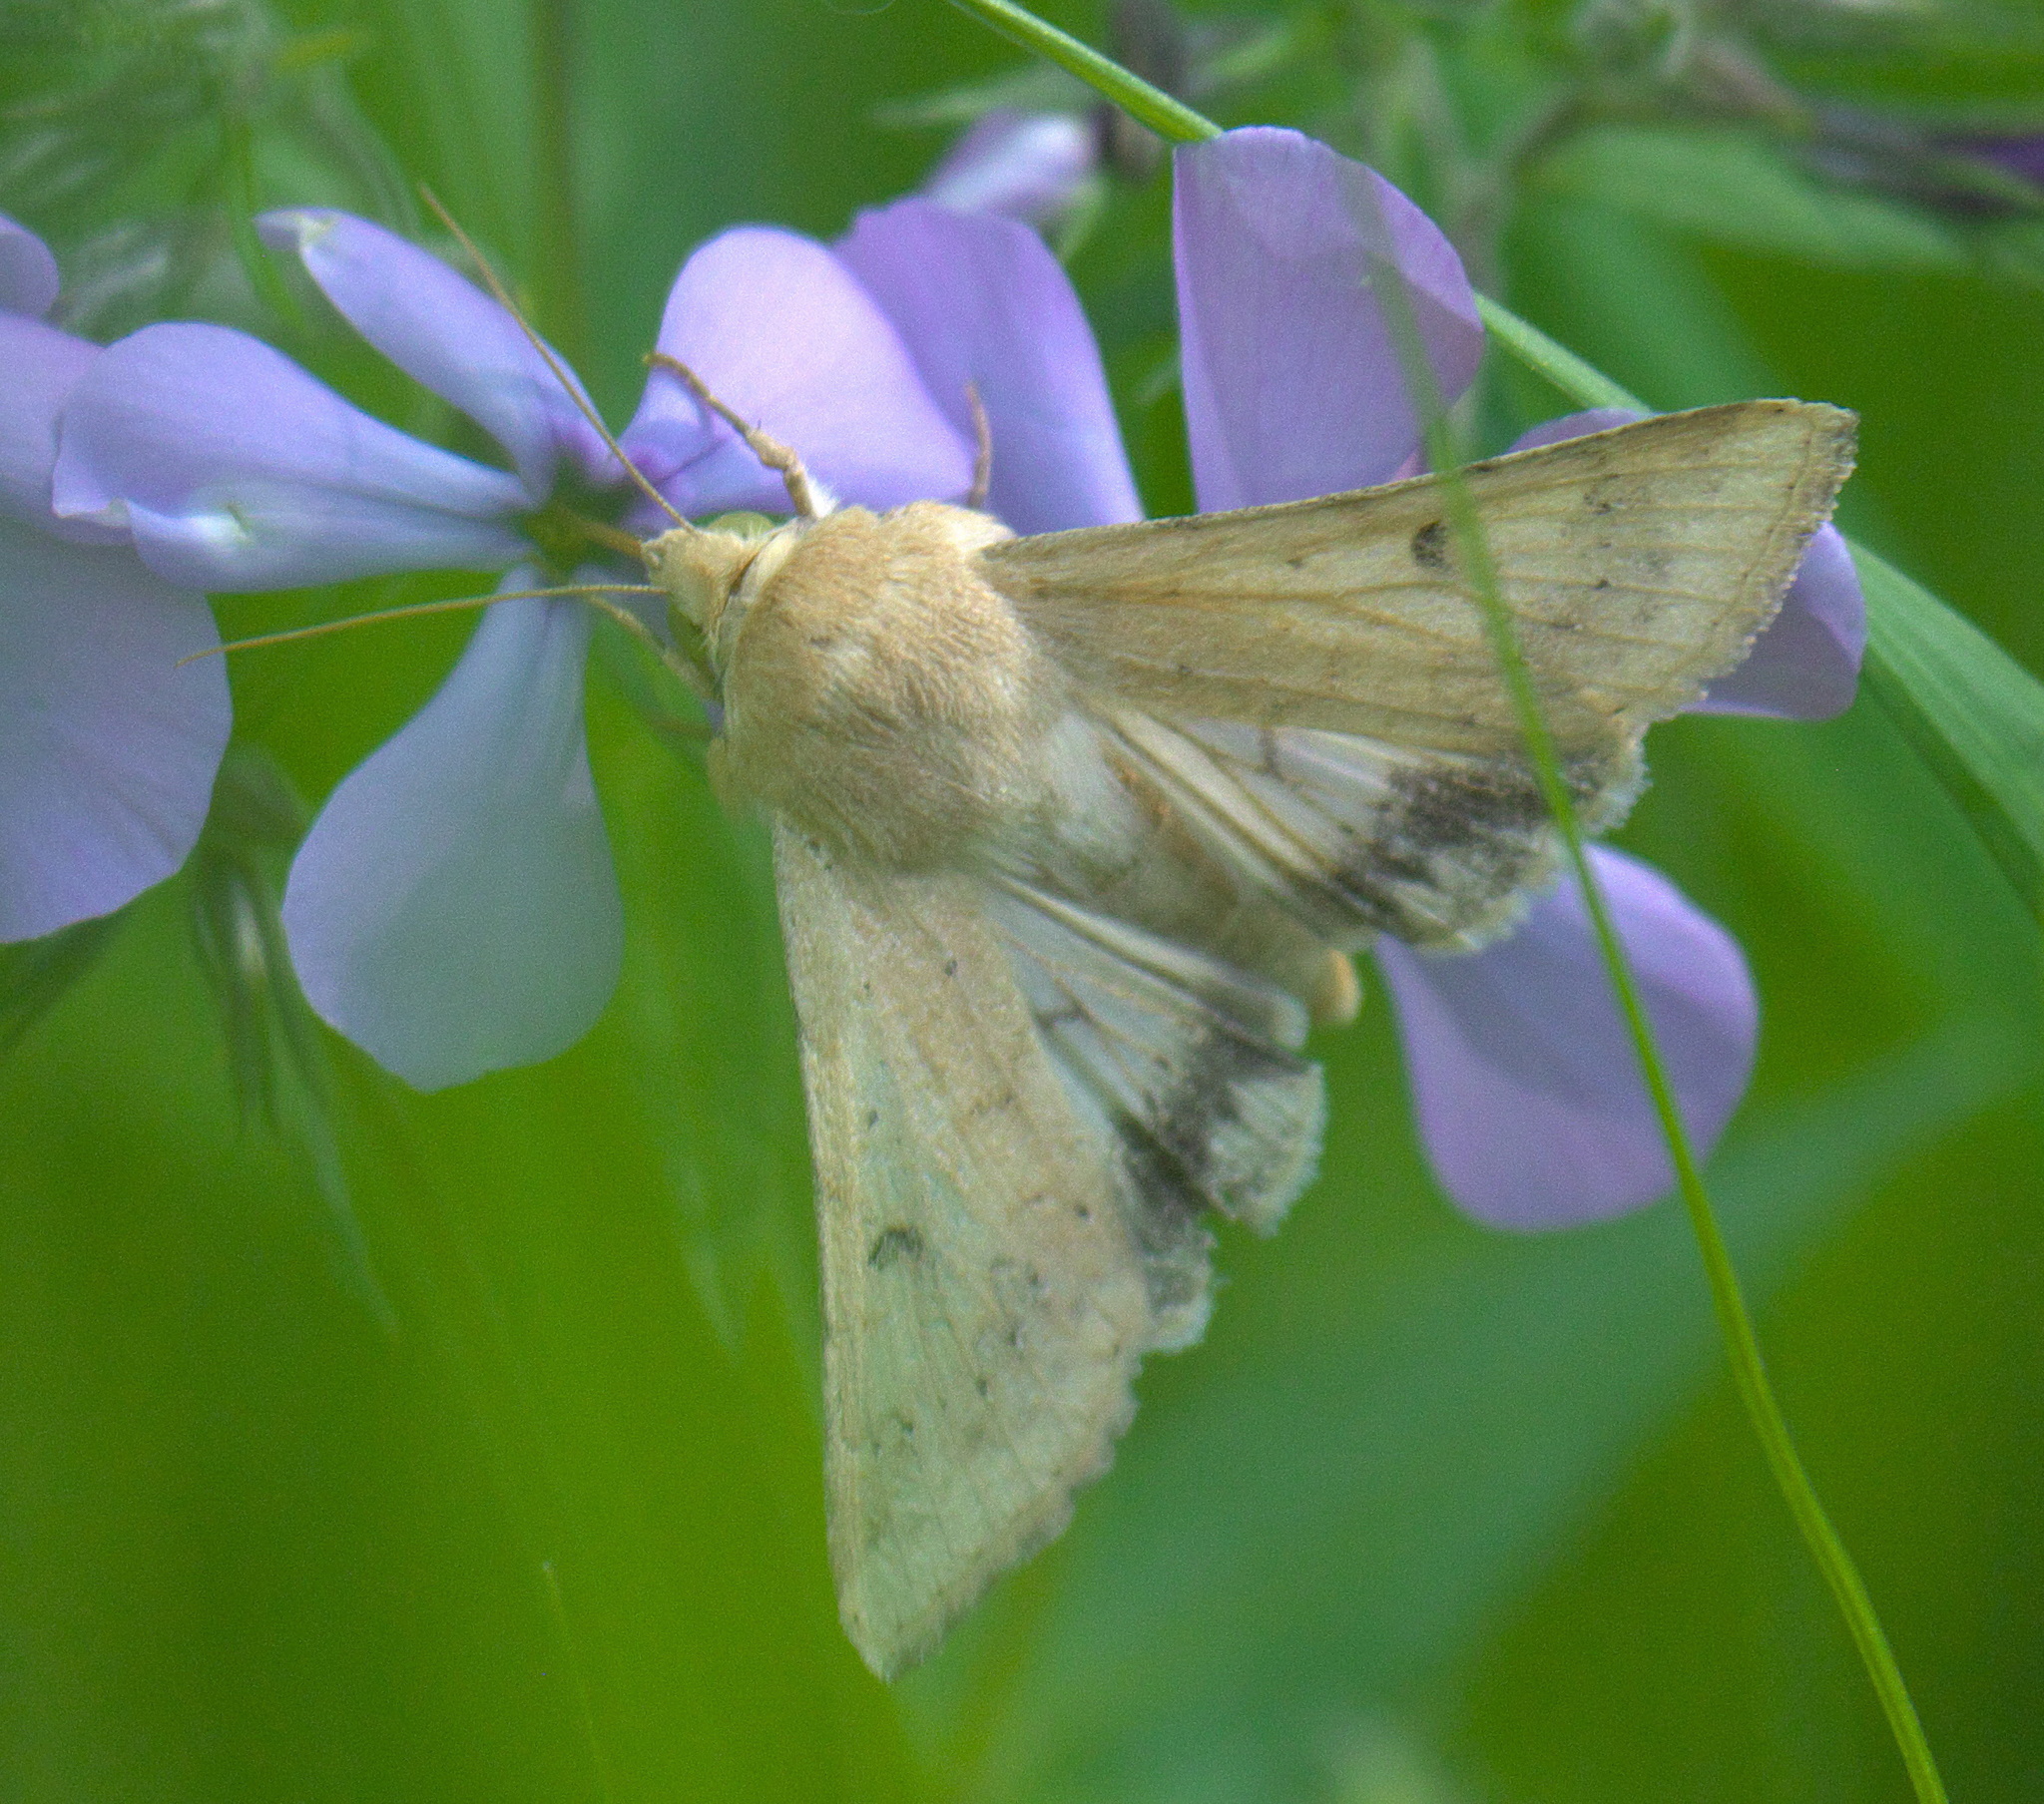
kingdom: Animalia
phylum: Arthropoda
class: Insecta
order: Lepidoptera
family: Noctuidae
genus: Helicoverpa
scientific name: Helicoverpa zea
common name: Bollworm
